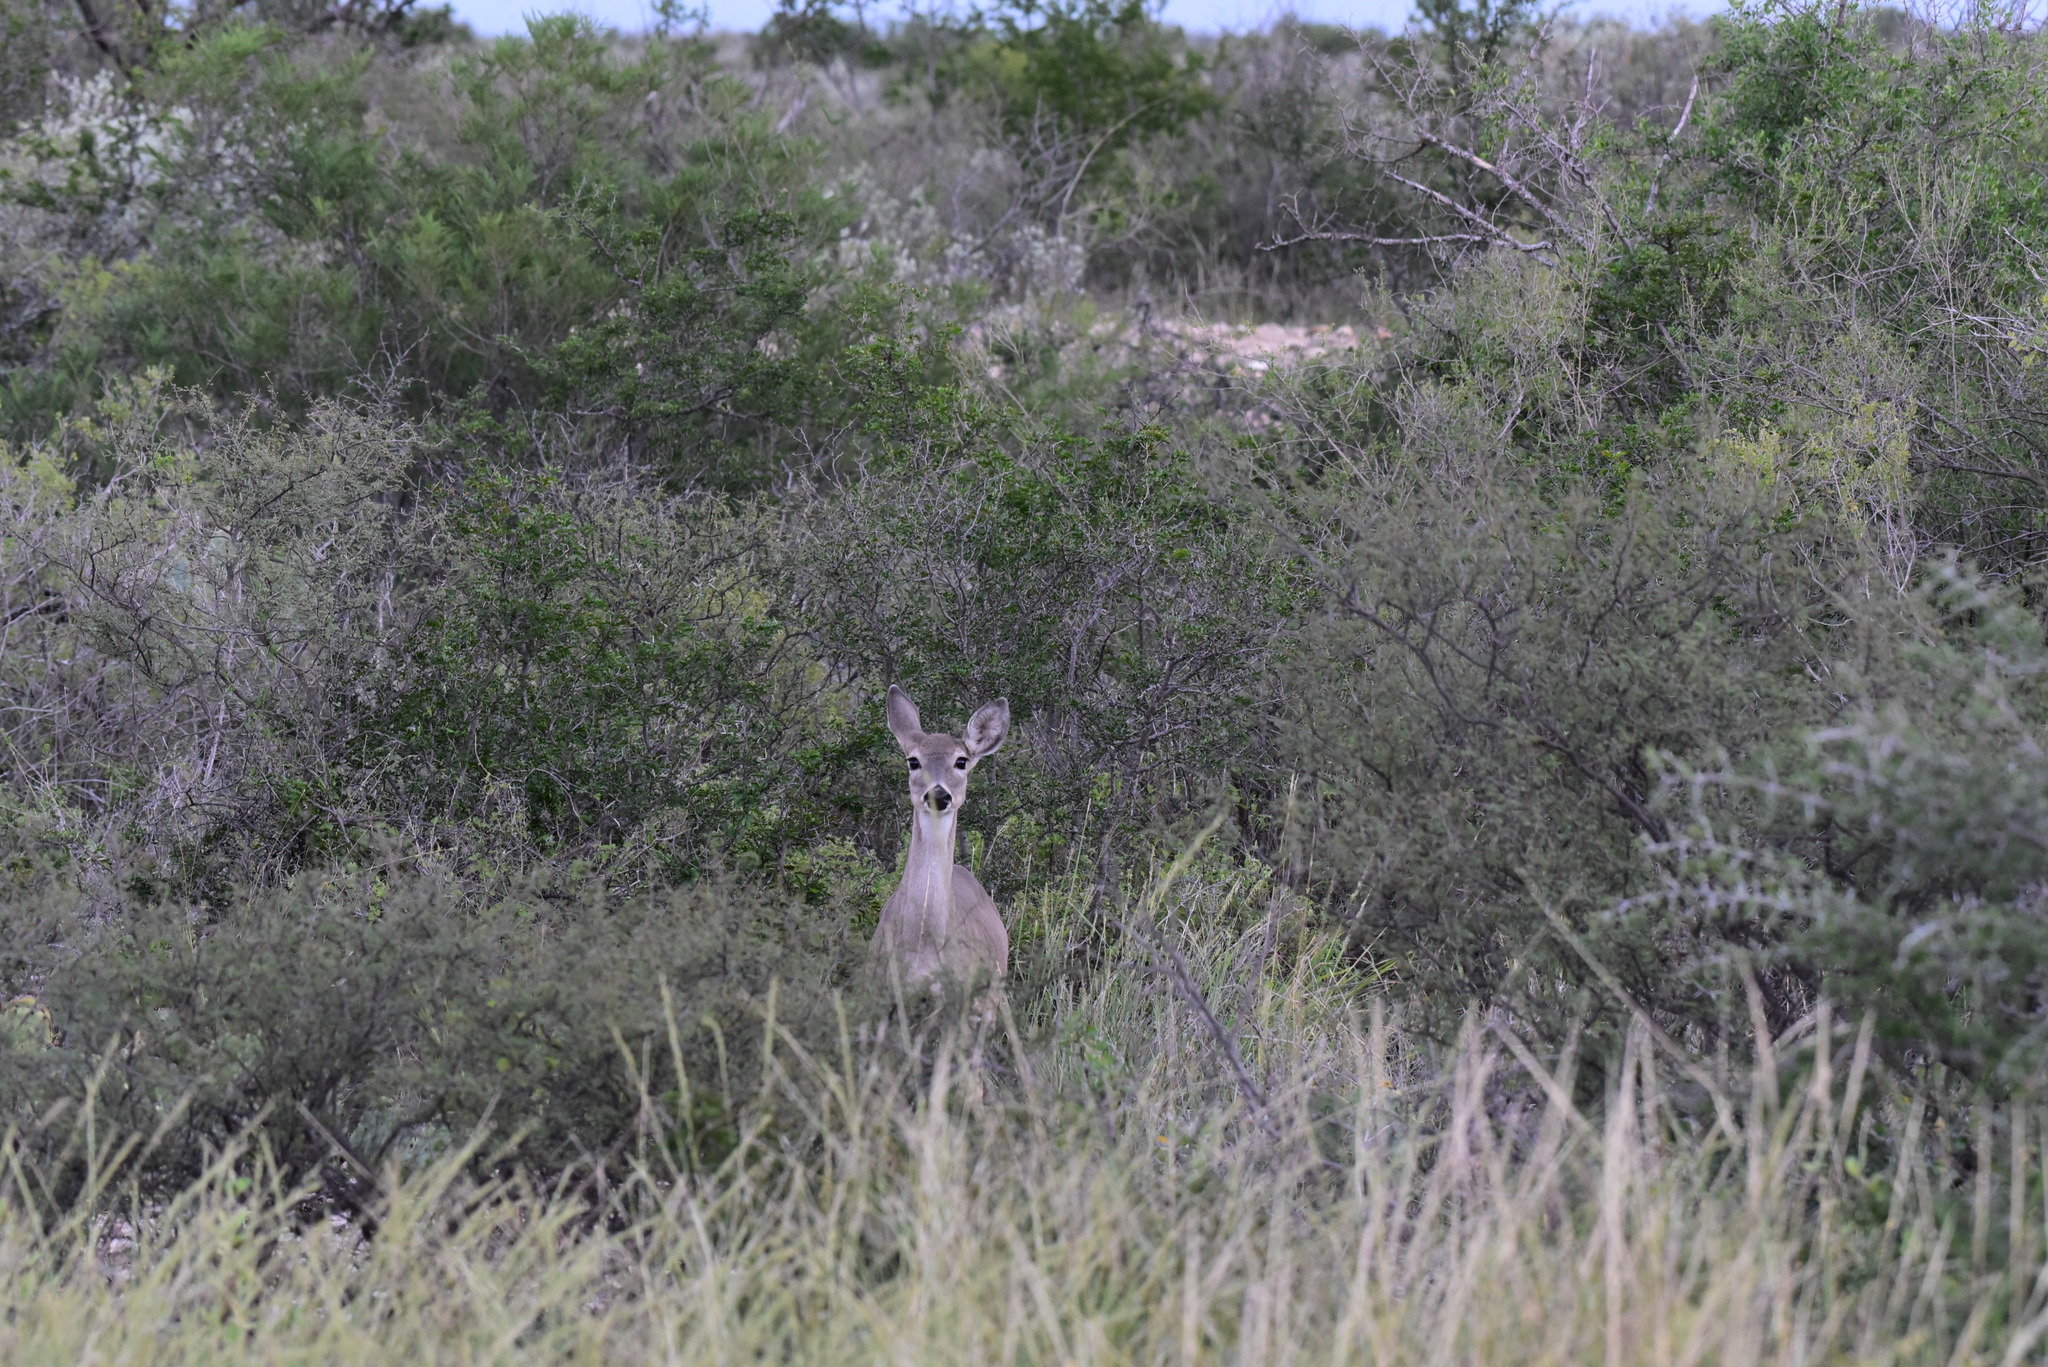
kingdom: Animalia
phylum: Chordata
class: Mammalia
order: Artiodactyla
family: Cervidae
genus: Odocoileus
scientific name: Odocoileus virginianus
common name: White-tailed deer
